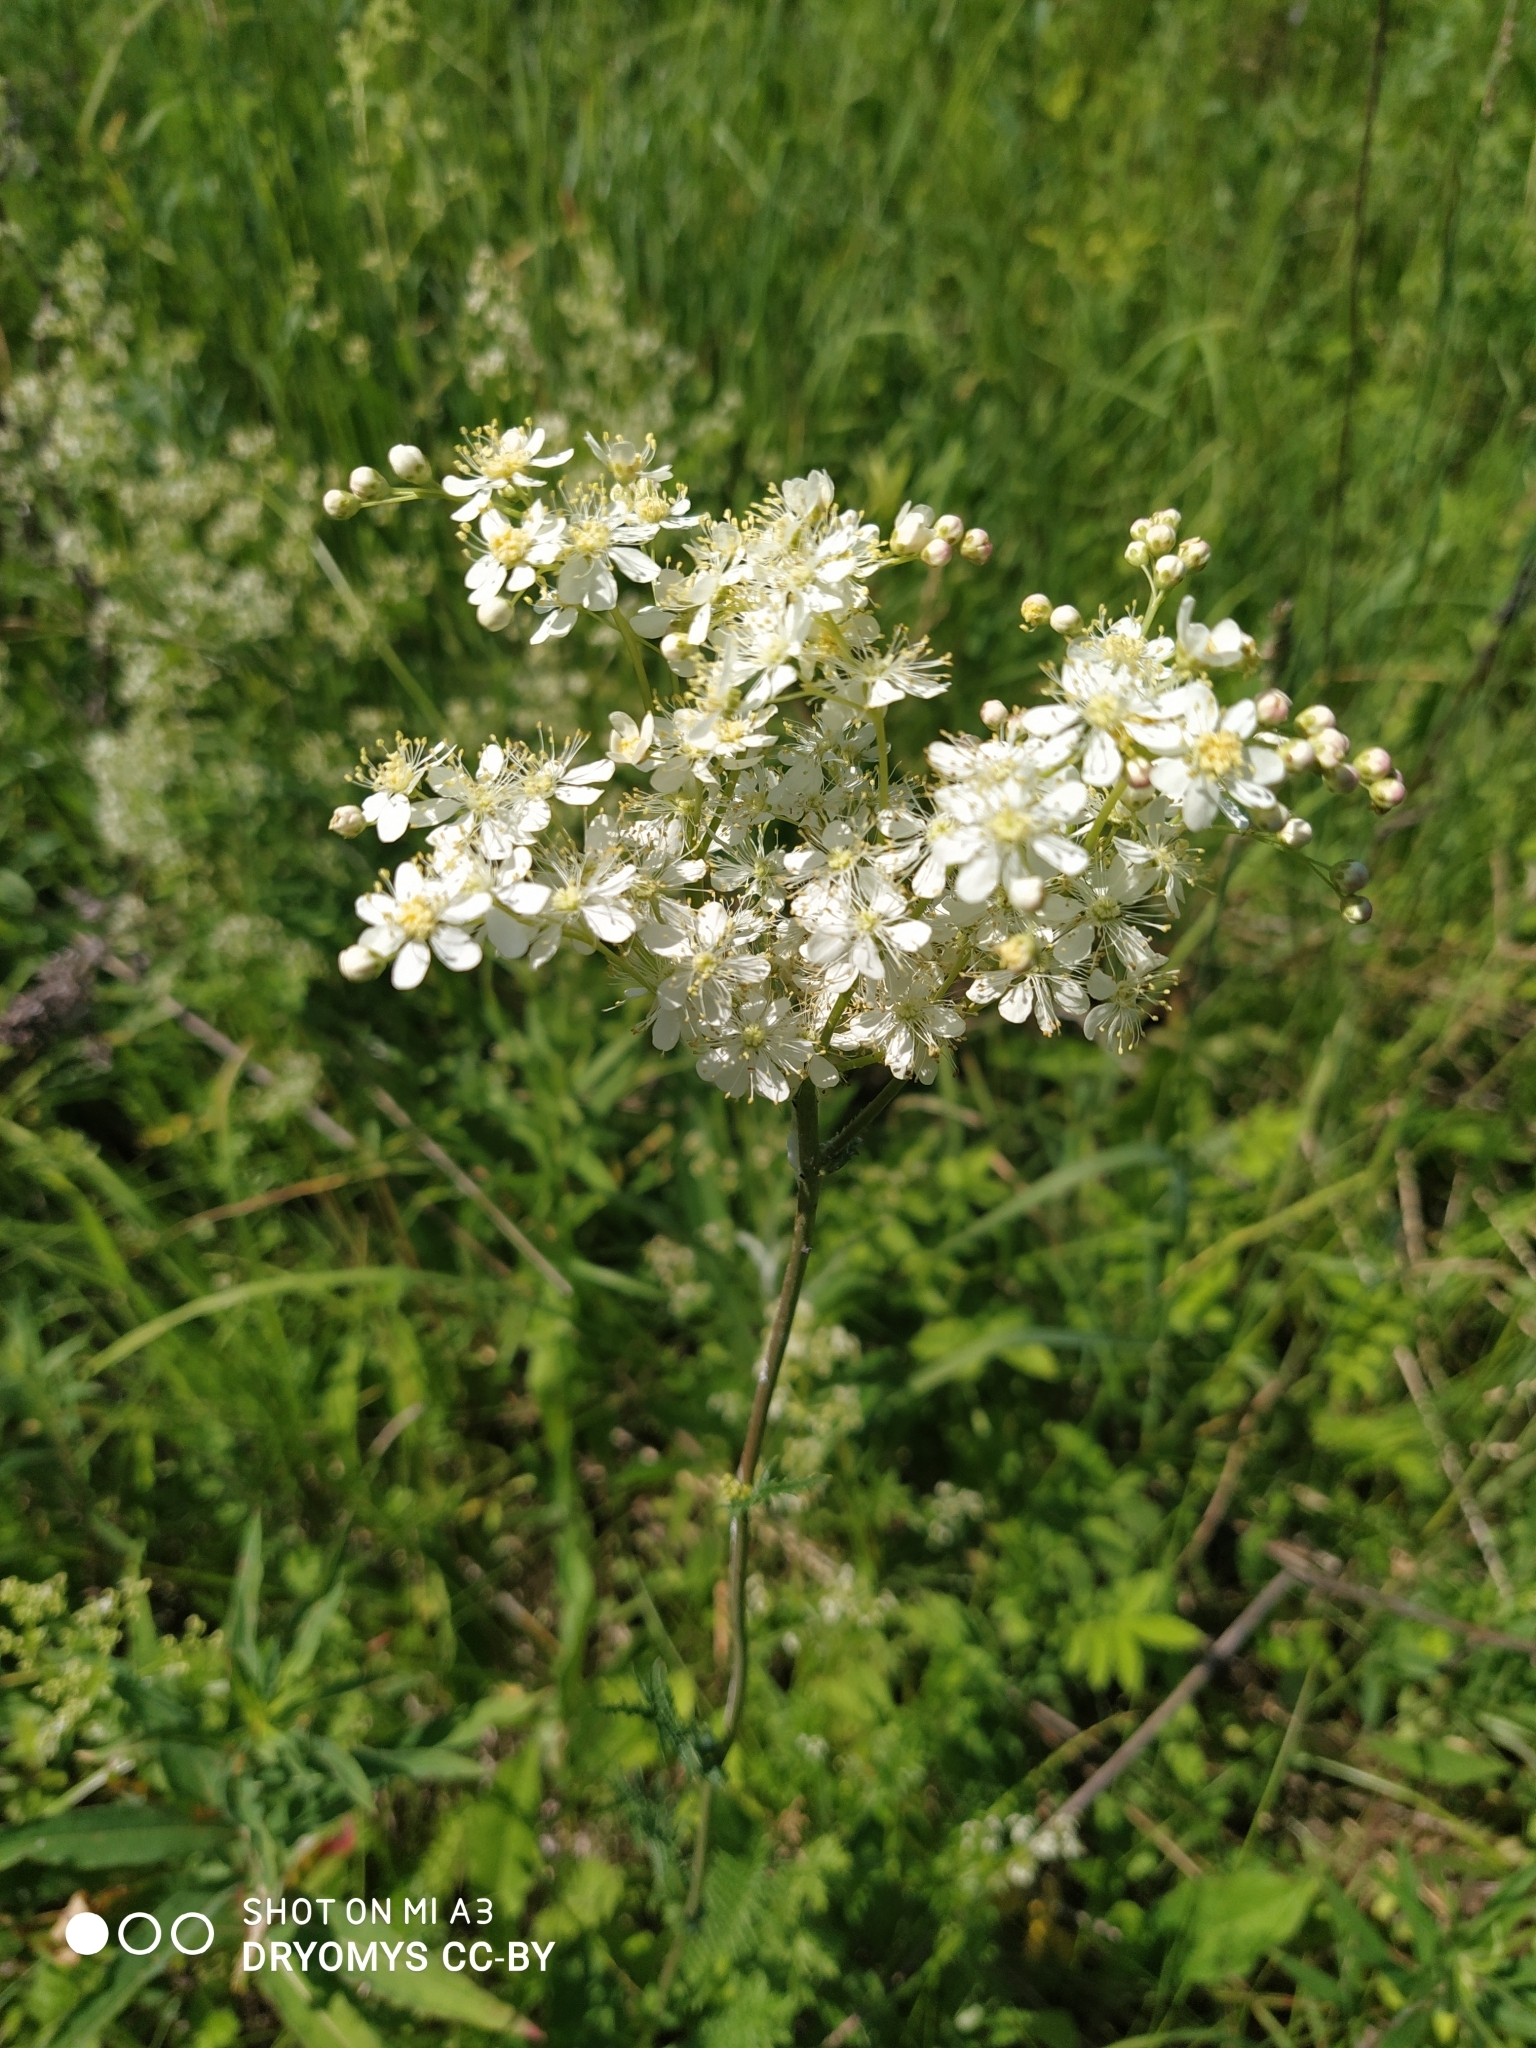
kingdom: Plantae
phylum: Tracheophyta
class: Magnoliopsida
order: Rosales
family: Rosaceae
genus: Filipendula
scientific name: Filipendula vulgaris
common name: Dropwort
